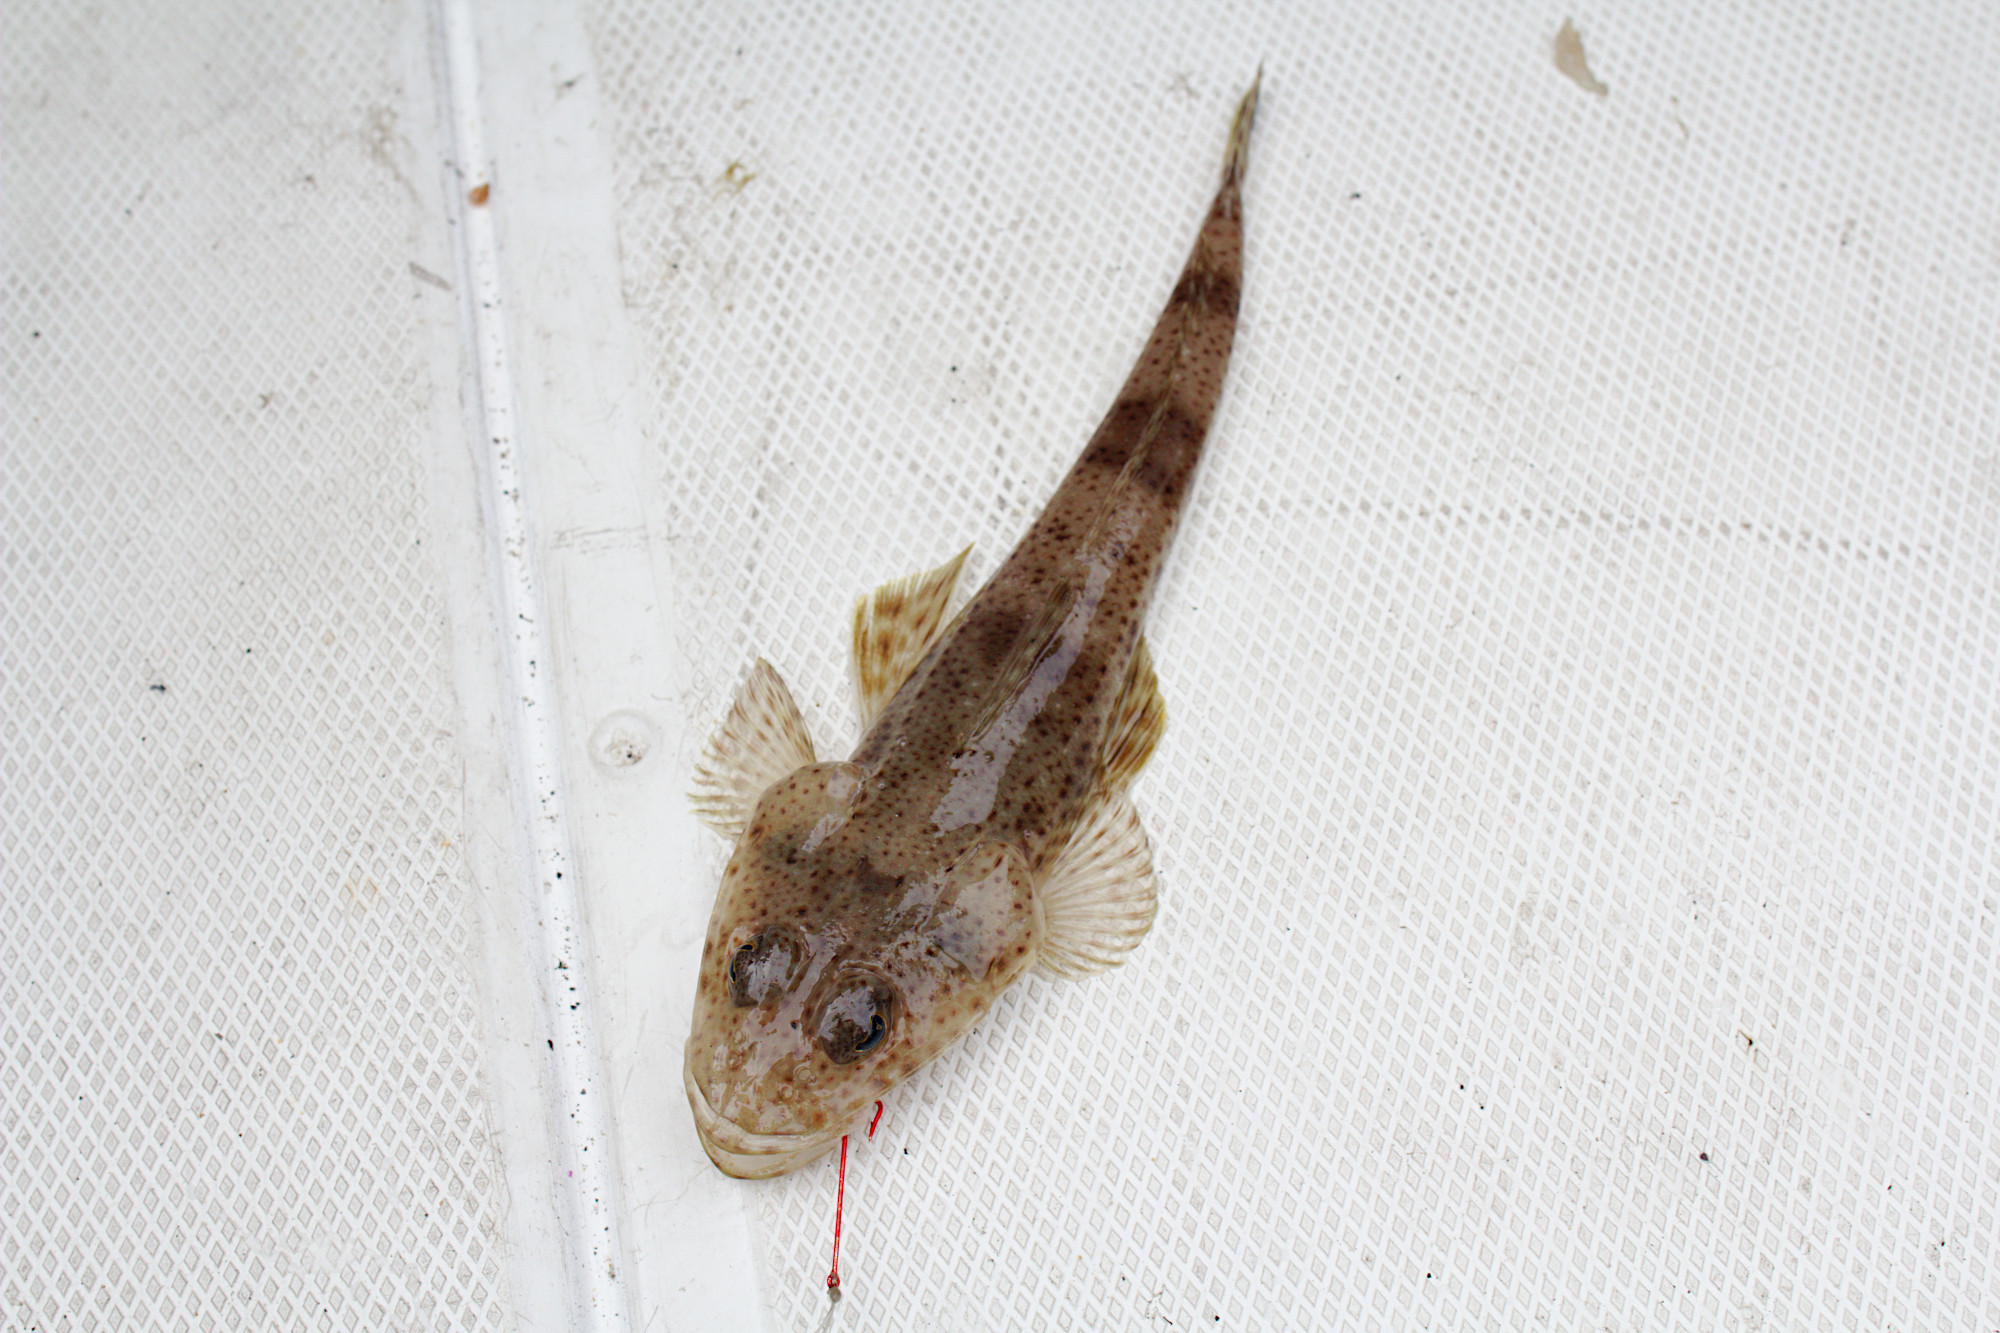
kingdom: Animalia
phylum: Chordata
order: Scorpaeniformes
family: Platycephalidae
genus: Platycephalus
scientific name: Platycephalus speculator
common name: Bluespot flathead
